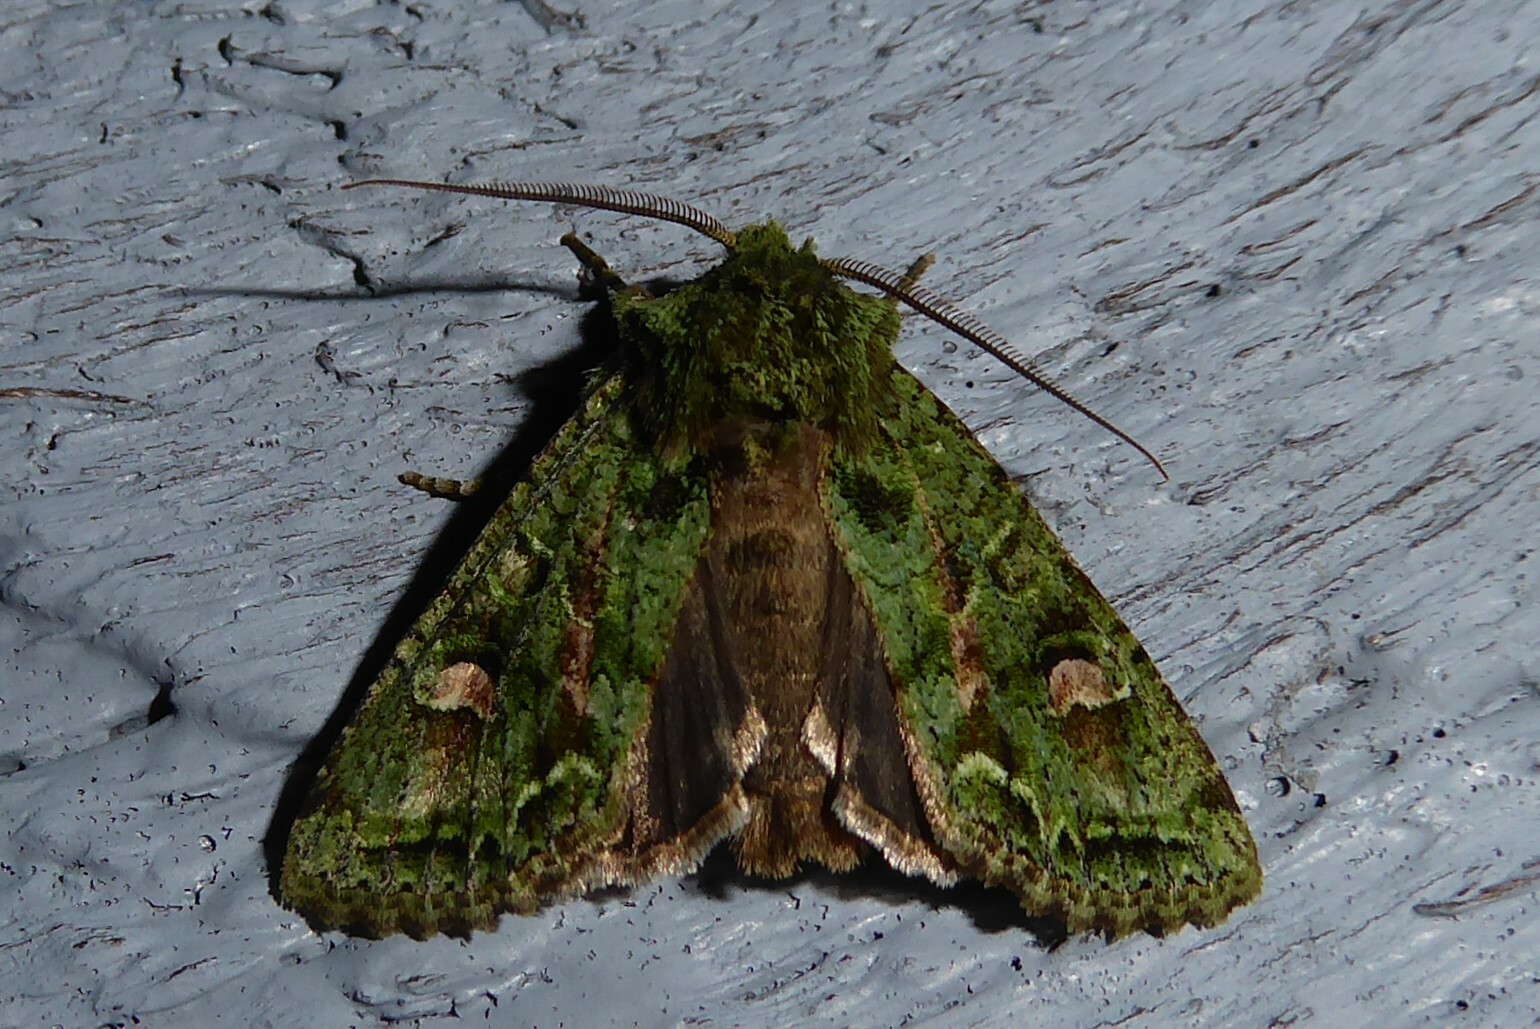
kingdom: Animalia
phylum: Arthropoda
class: Insecta
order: Lepidoptera
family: Noctuidae
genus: Ichneutica
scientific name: Ichneutica
